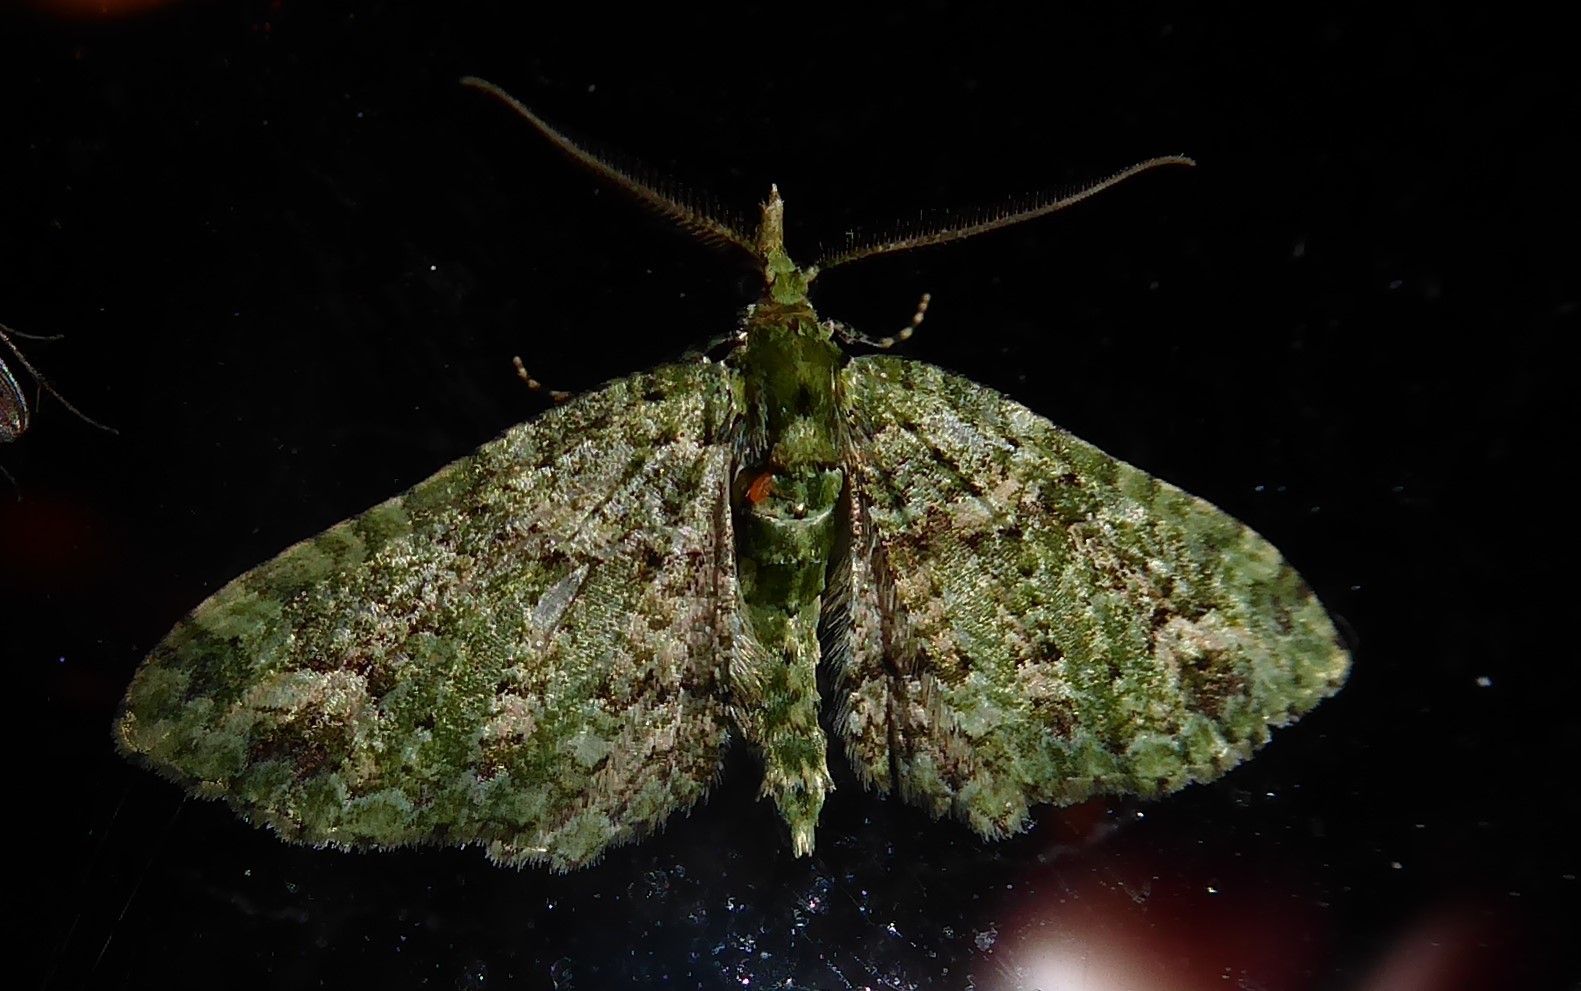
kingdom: Animalia
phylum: Arthropoda
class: Insecta
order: Lepidoptera
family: Geometridae
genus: Pasiphila
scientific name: Pasiphila muscosata
